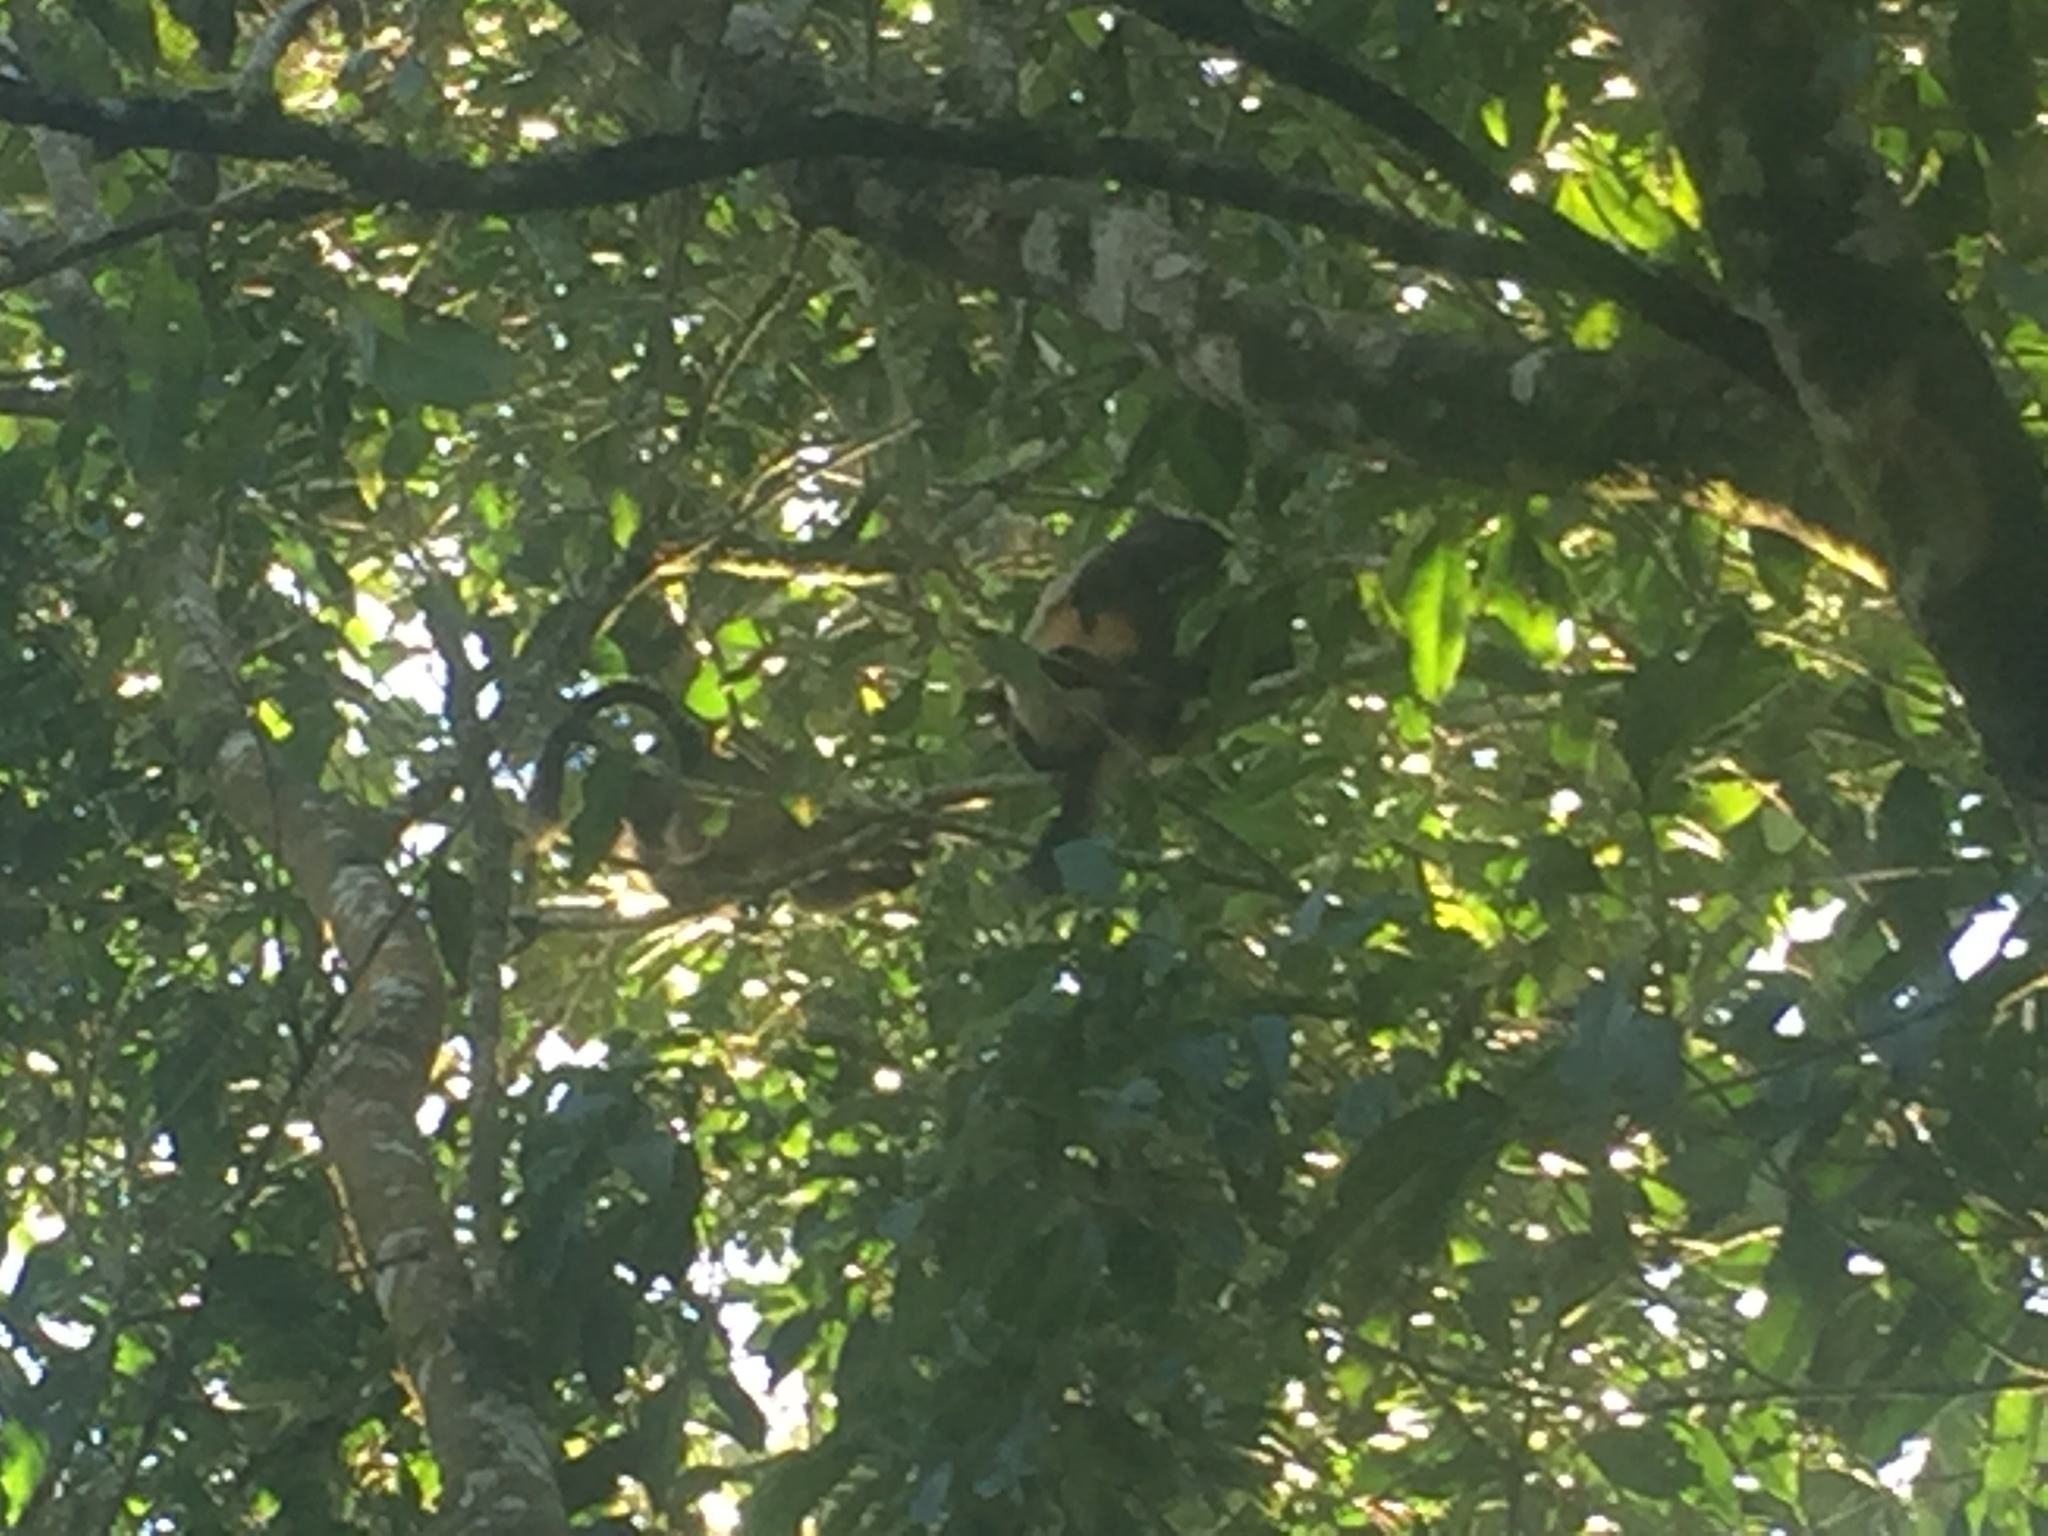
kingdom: Animalia
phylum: Chordata
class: Mammalia
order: Diprotodontia
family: Macropodidae
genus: Dendrolagus
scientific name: Dendrolagus lumholtzi
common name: Lumholtz's tree kangaroo
